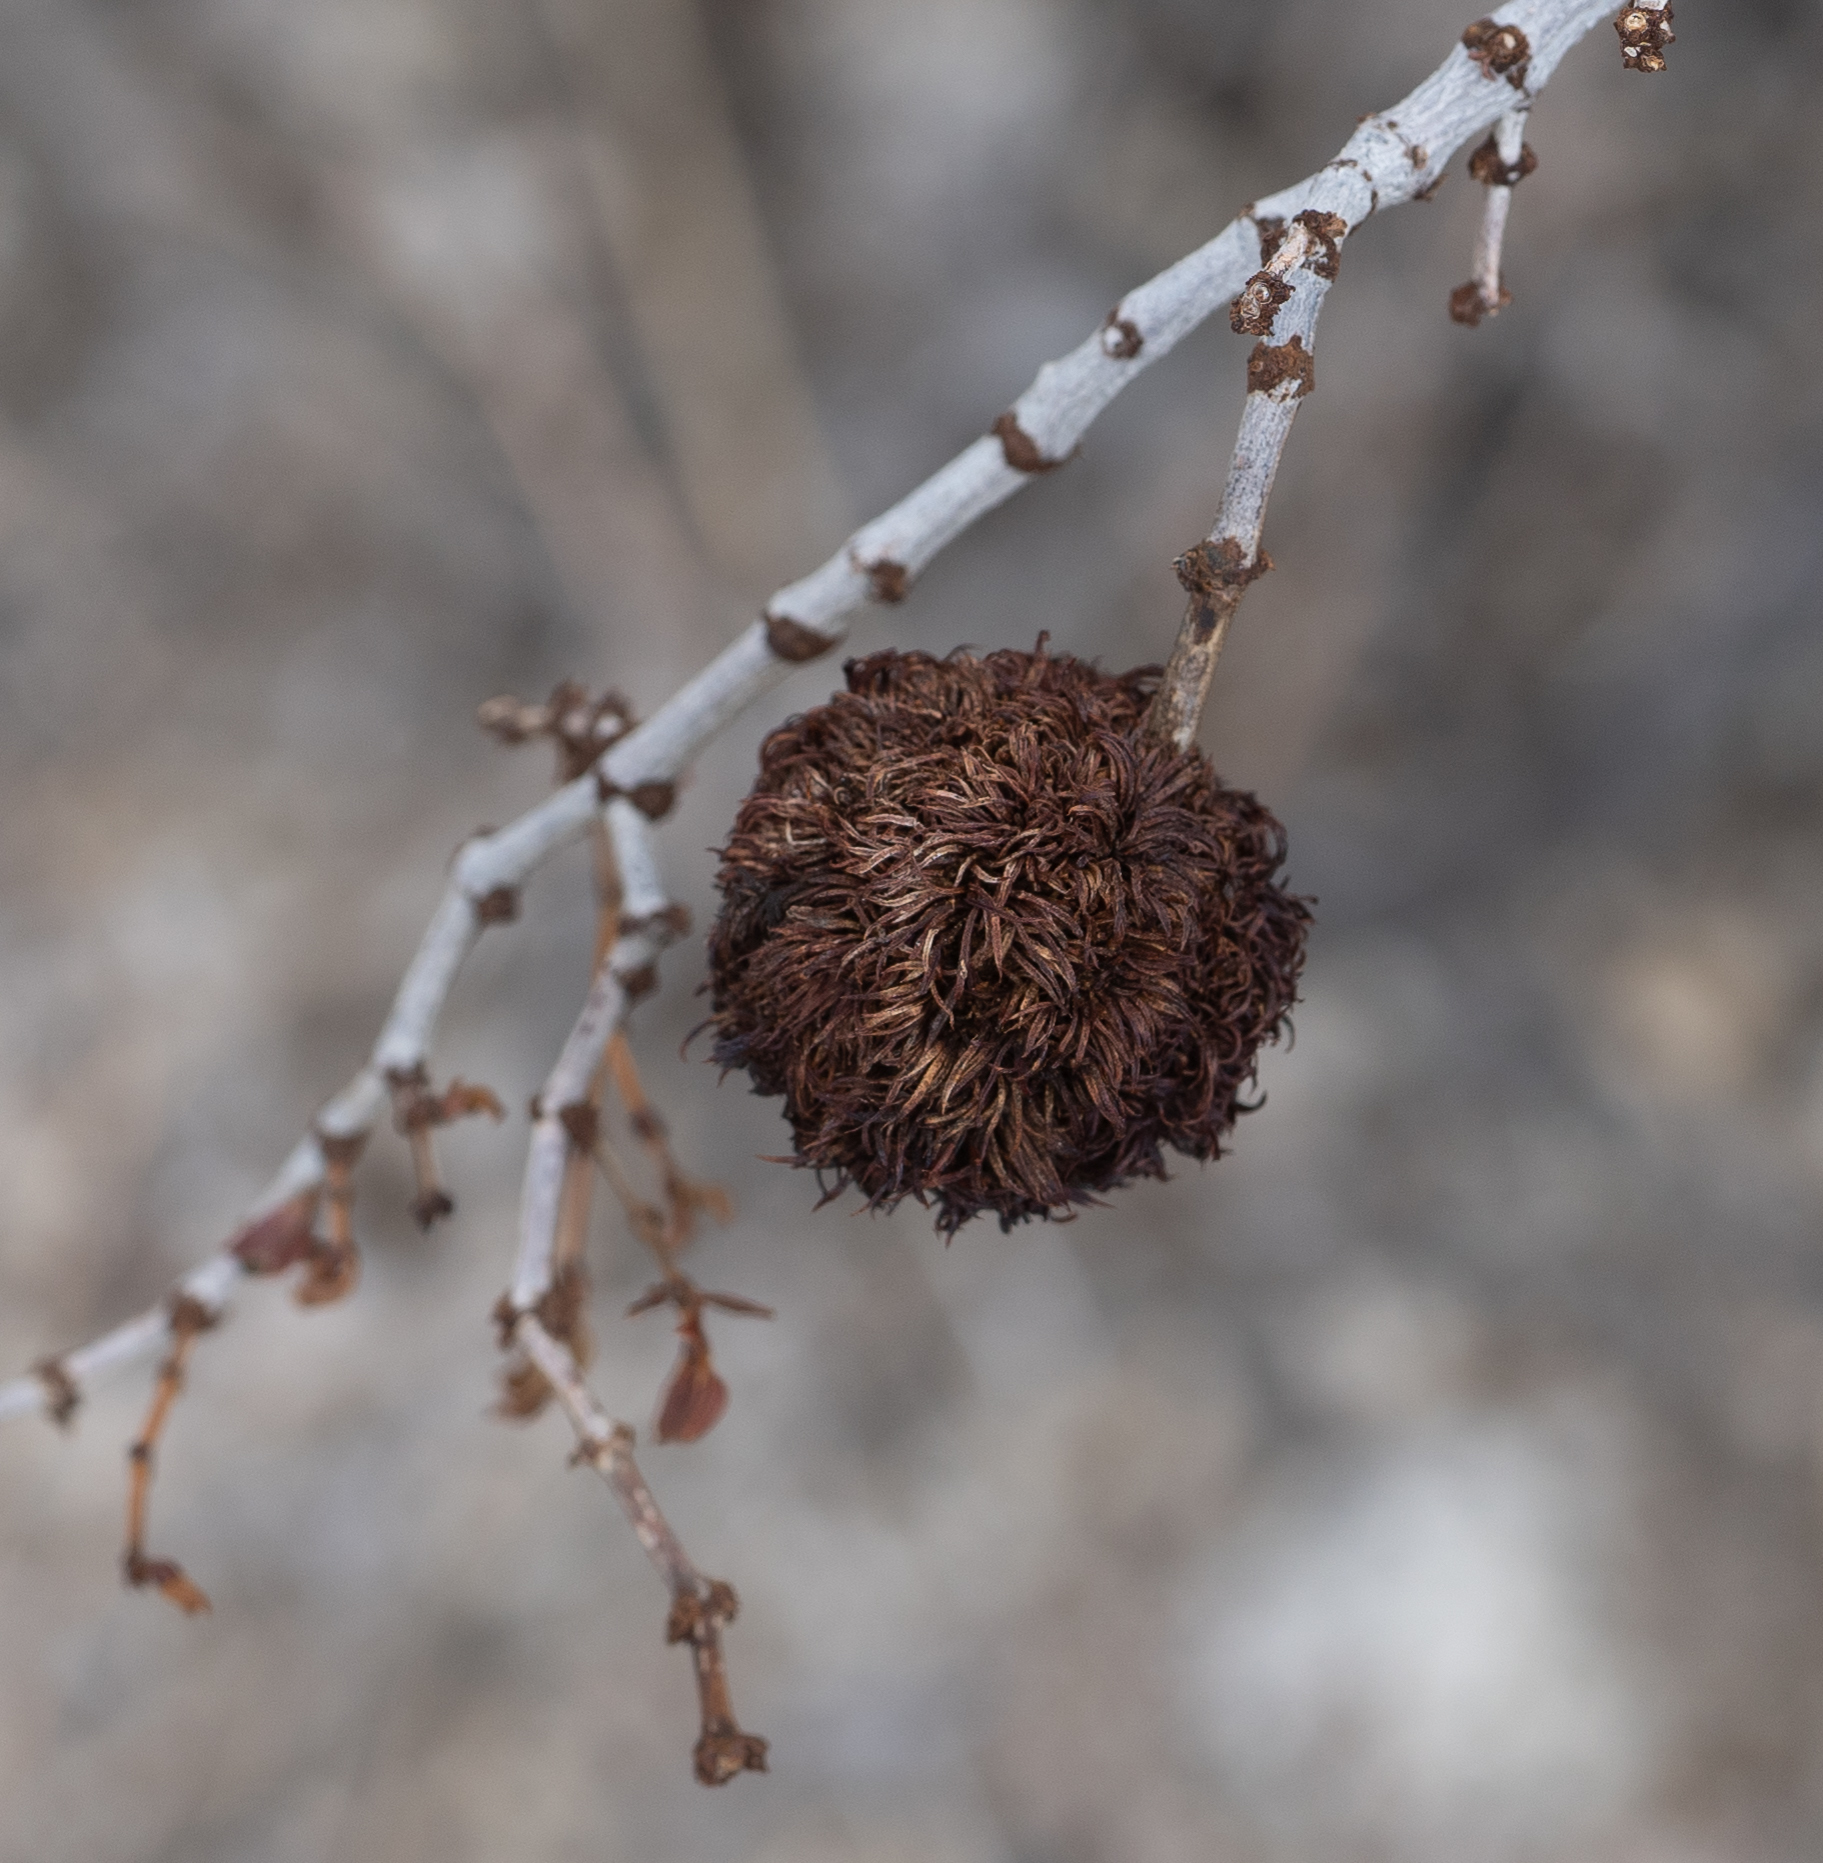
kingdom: Animalia
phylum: Arthropoda
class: Insecta
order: Diptera
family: Cecidomyiidae
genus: Asphondylia
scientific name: Asphondylia auripila
